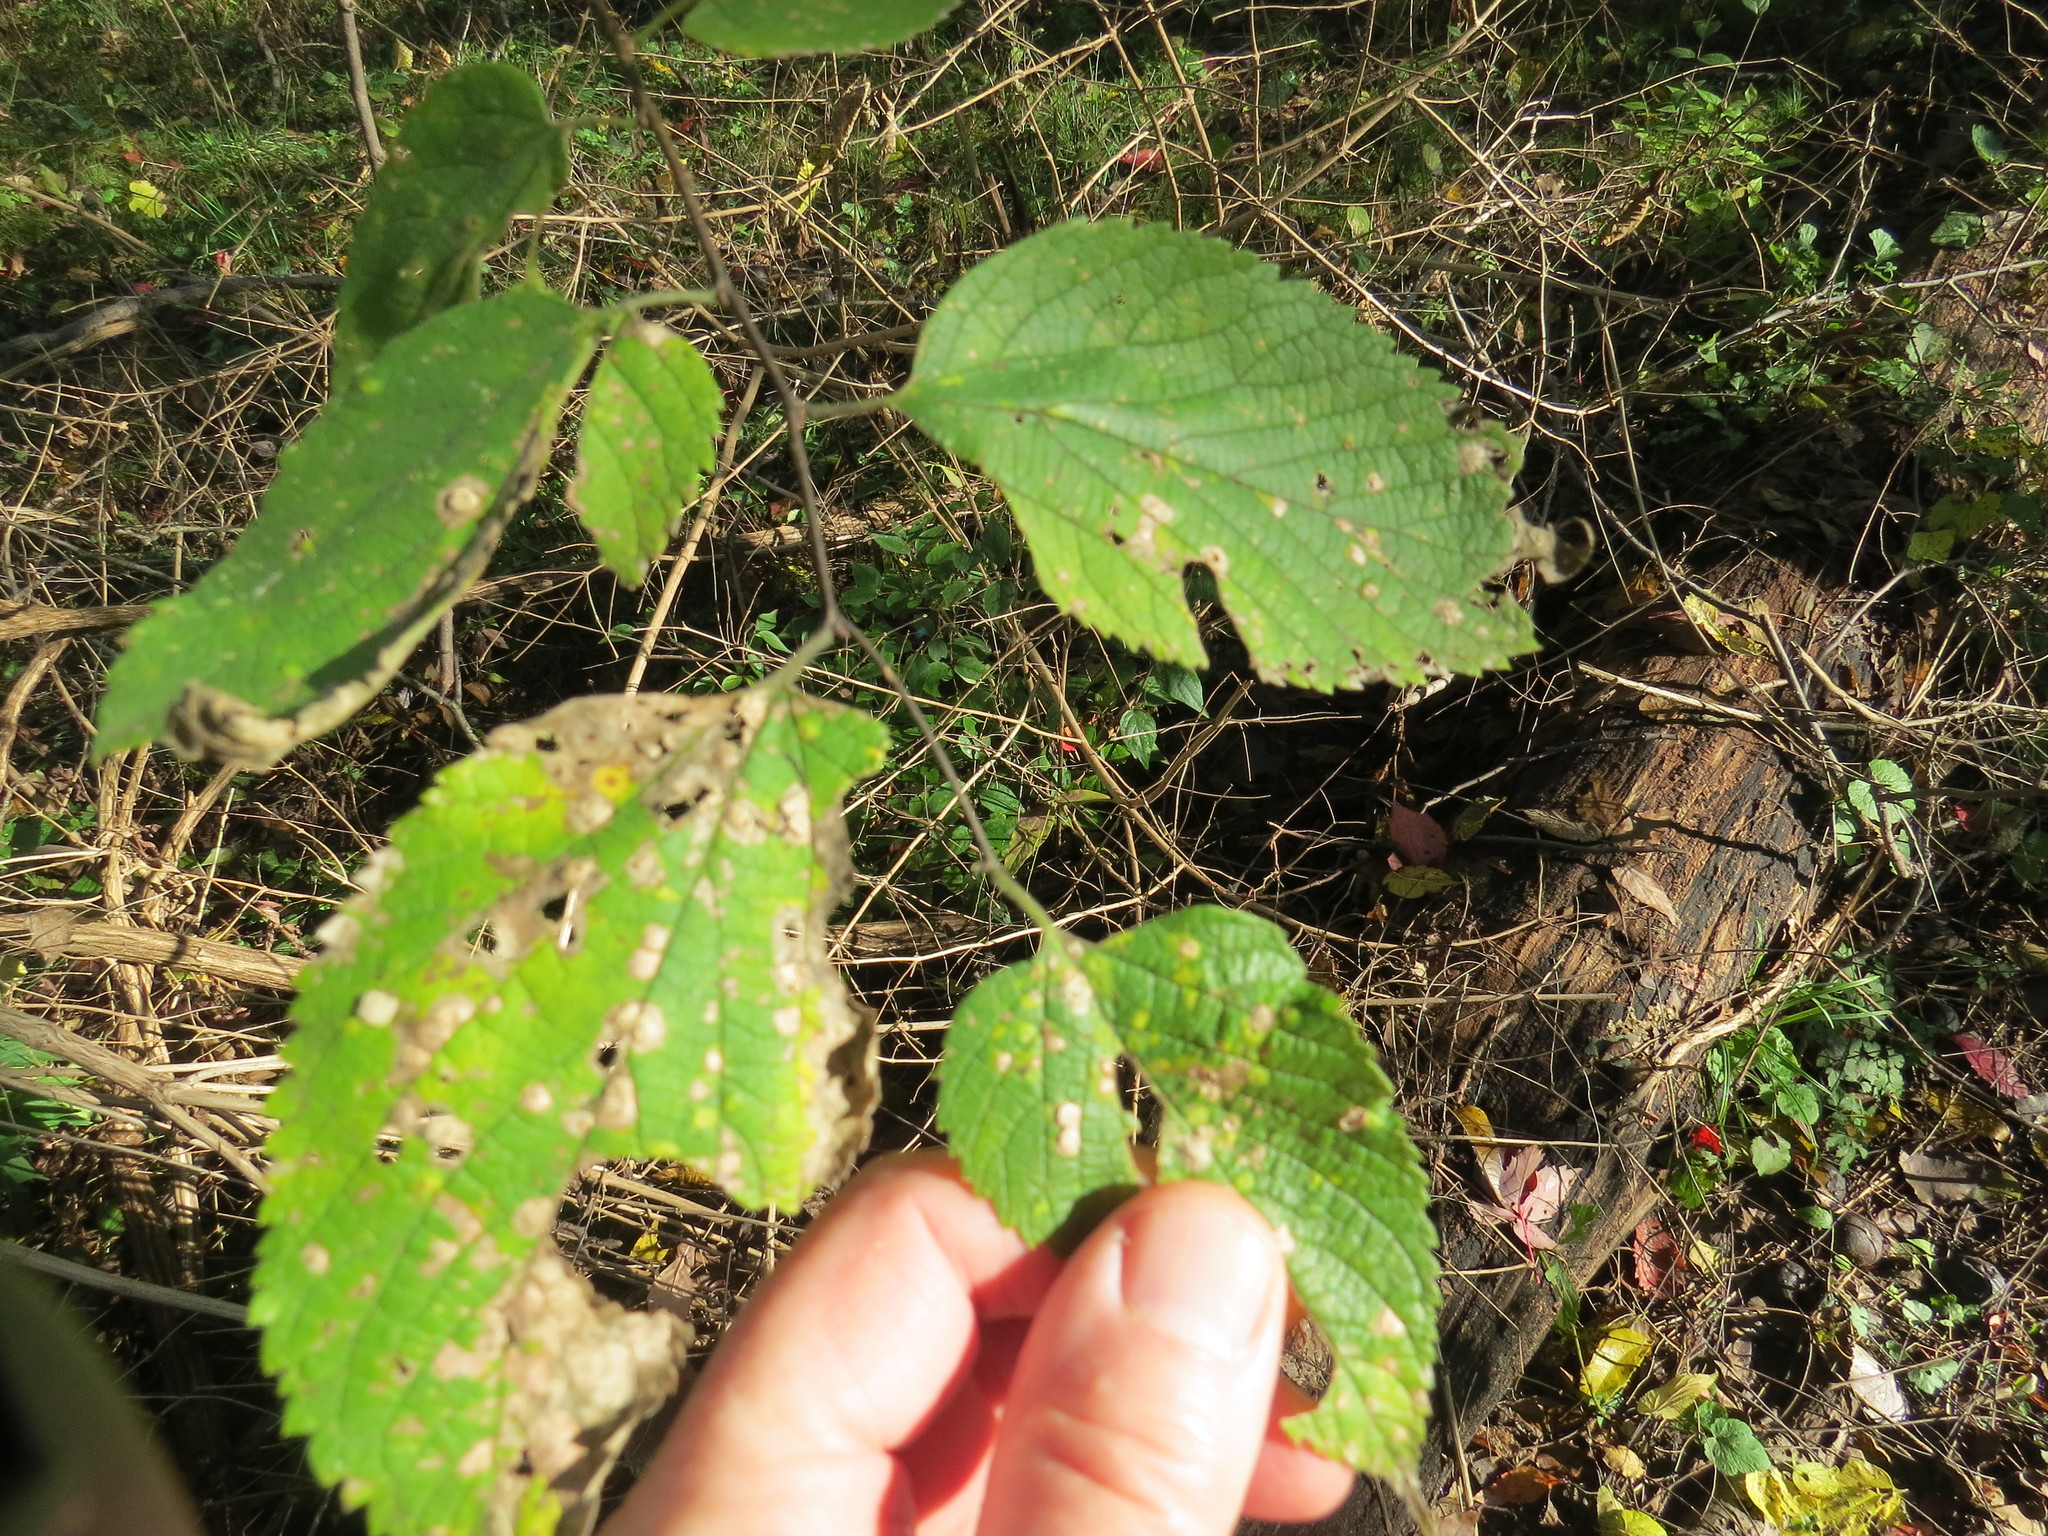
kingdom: Plantae
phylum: Tracheophyta
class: Magnoliopsida
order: Rosales
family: Cannabaceae
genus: Celtis
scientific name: Celtis occidentalis
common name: Common hackberry
